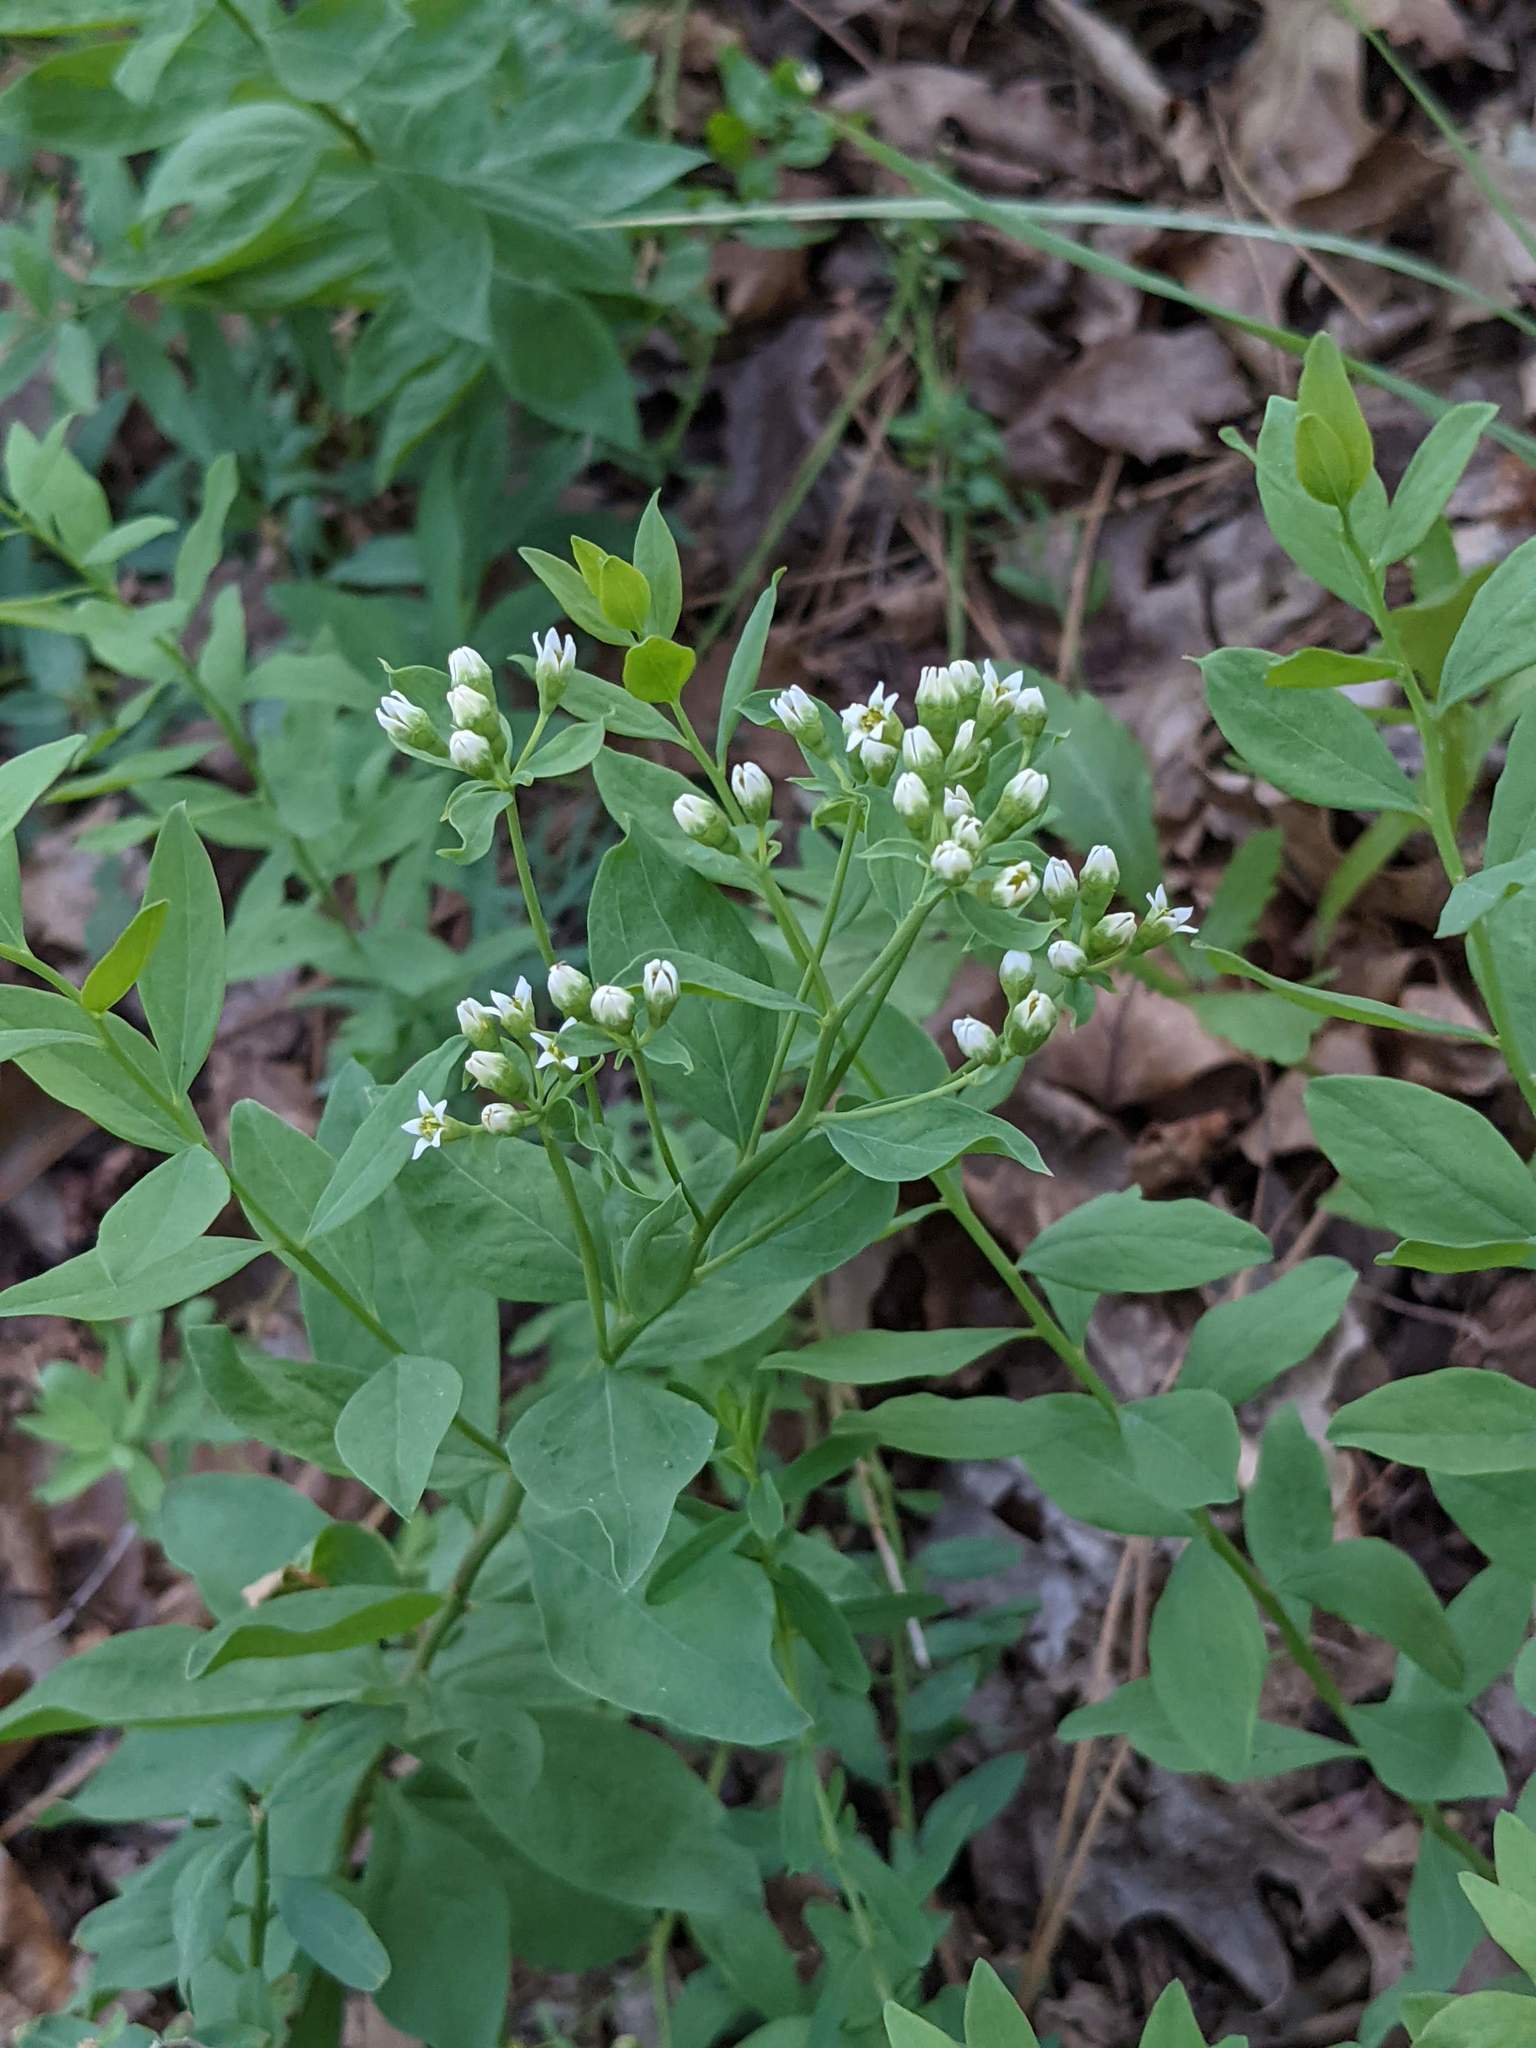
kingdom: Plantae
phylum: Tracheophyta
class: Magnoliopsida
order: Santalales
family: Comandraceae
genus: Comandra
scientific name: Comandra umbellata
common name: Bastard toadflax
